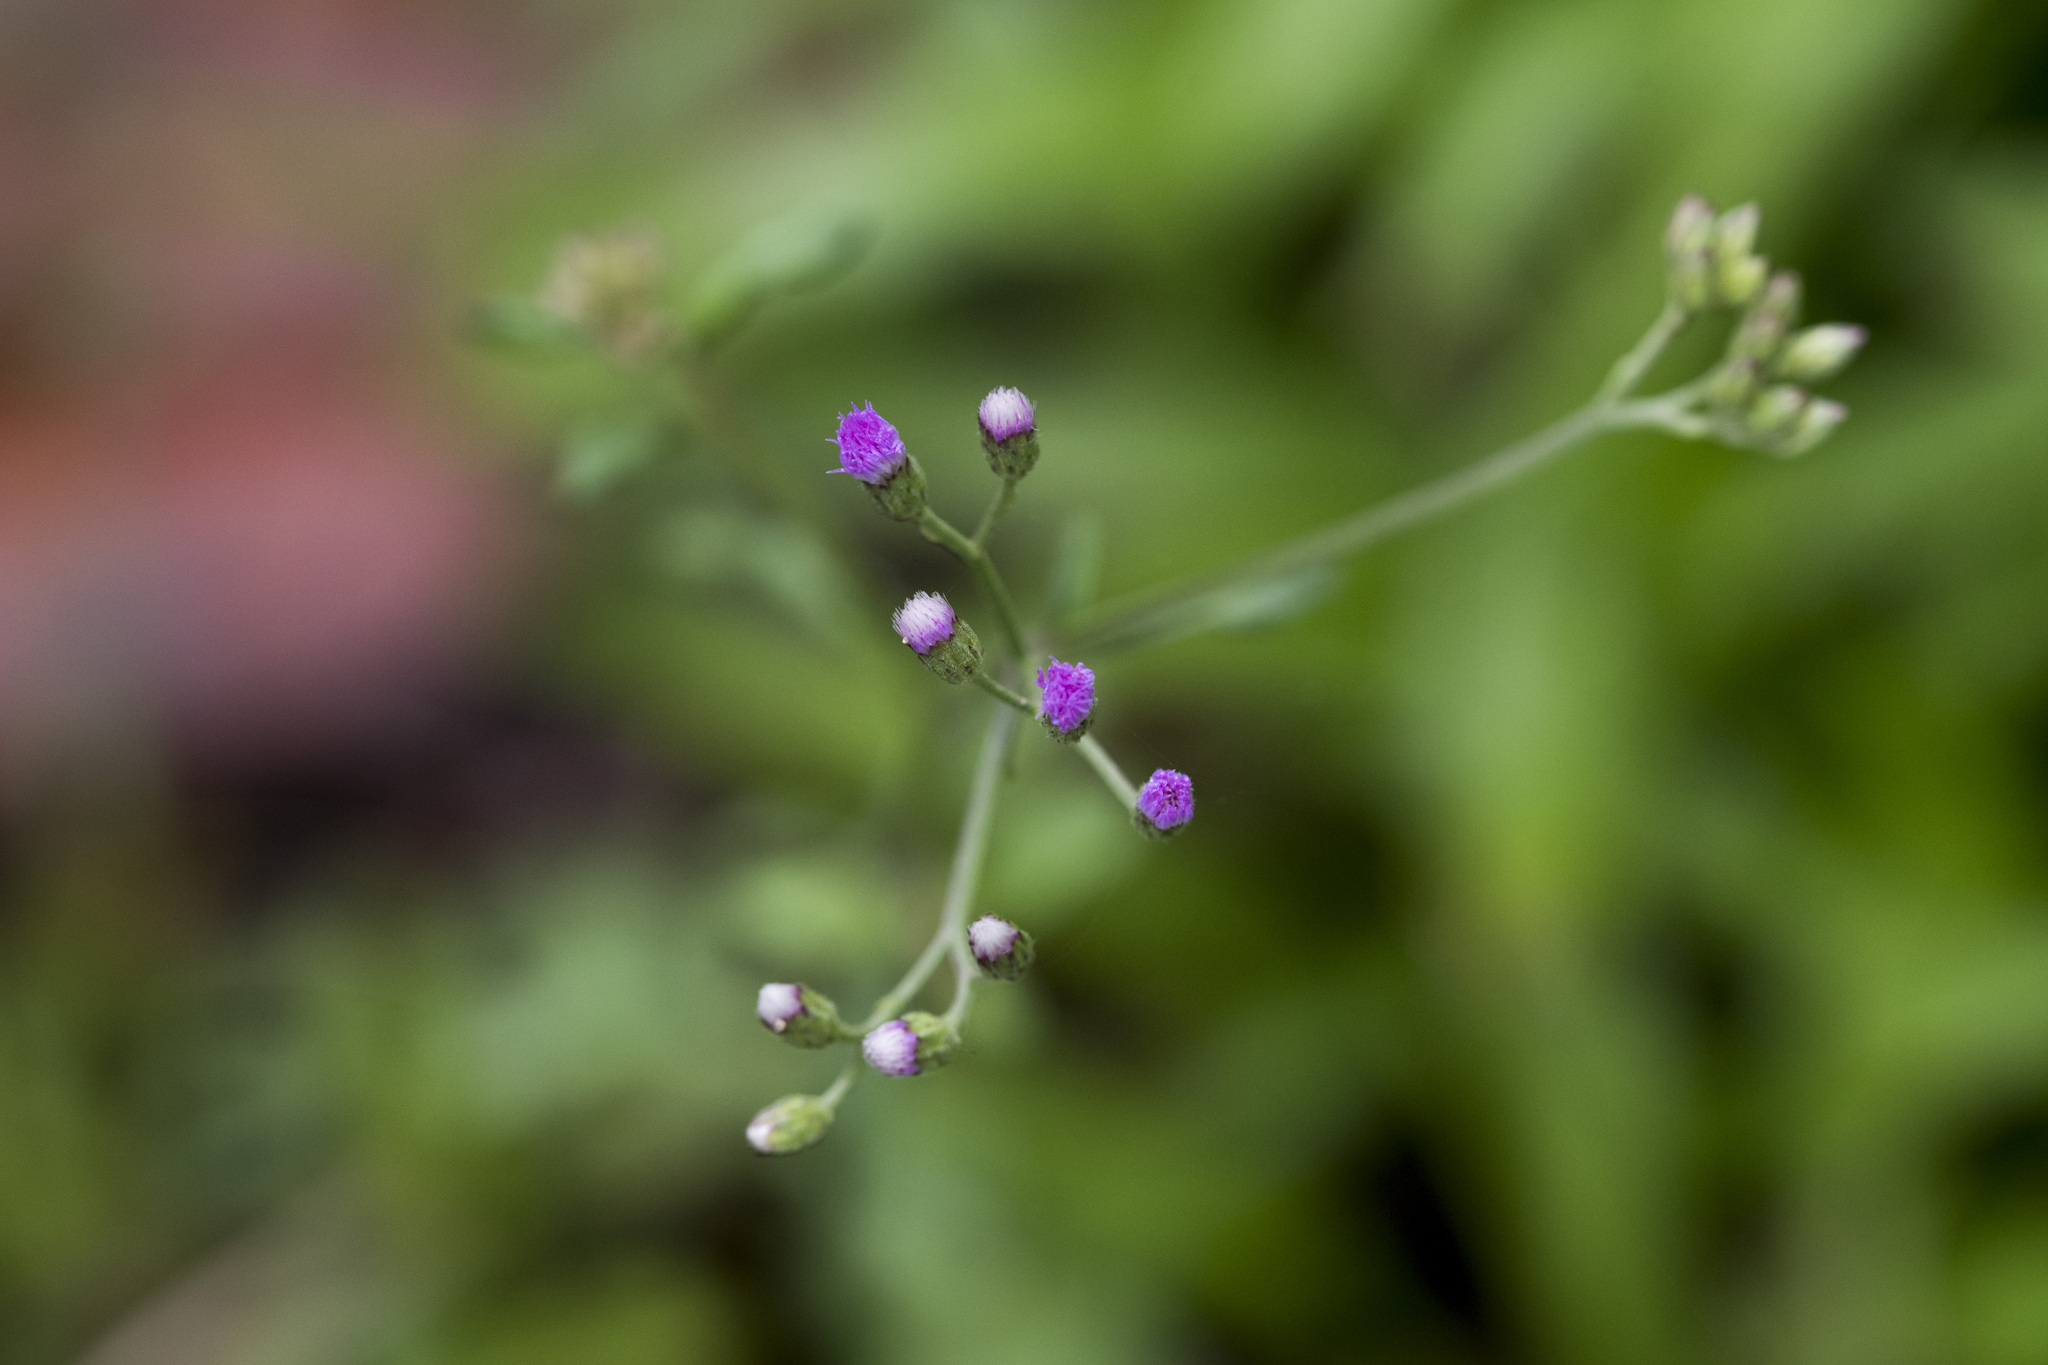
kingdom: Plantae
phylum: Tracheophyta
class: Magnoliopsida
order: Asterales
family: Asteraceae
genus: Cyanthillium
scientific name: Cyanthillium cinereum
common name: Little ironweed
